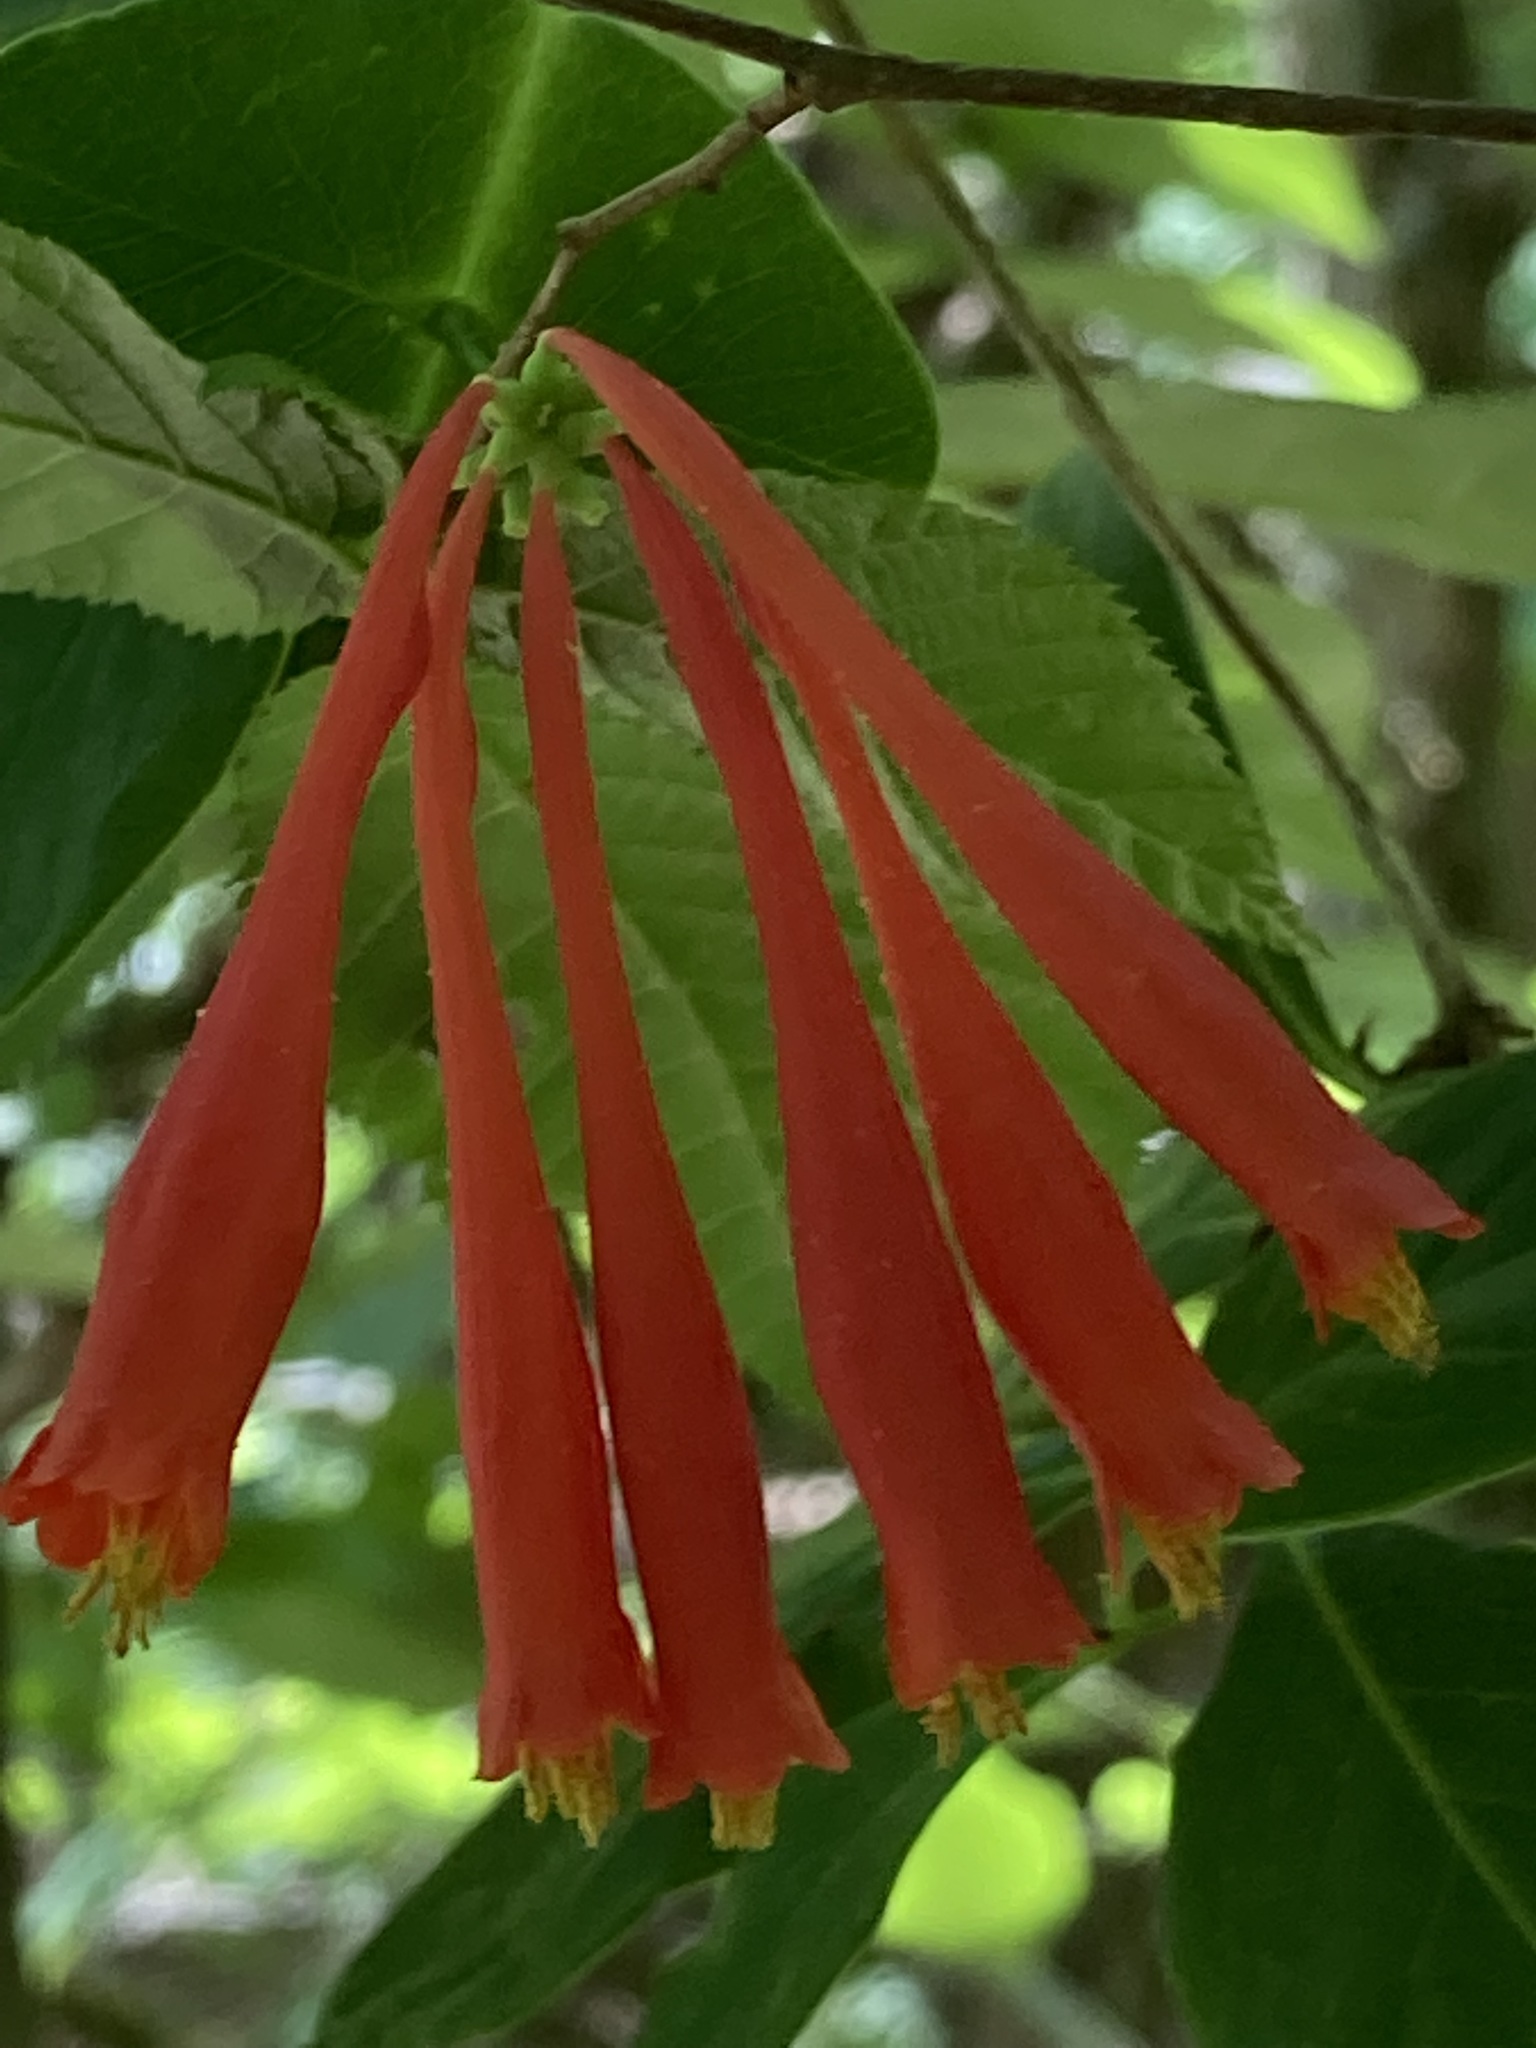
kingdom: Plantae
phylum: Tracheophyta
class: Magnoliopsida
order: Dipsacales
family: Caprifoliaceae
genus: Lonicera
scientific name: Lonicera sempervirens
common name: Coral honeysuckle
